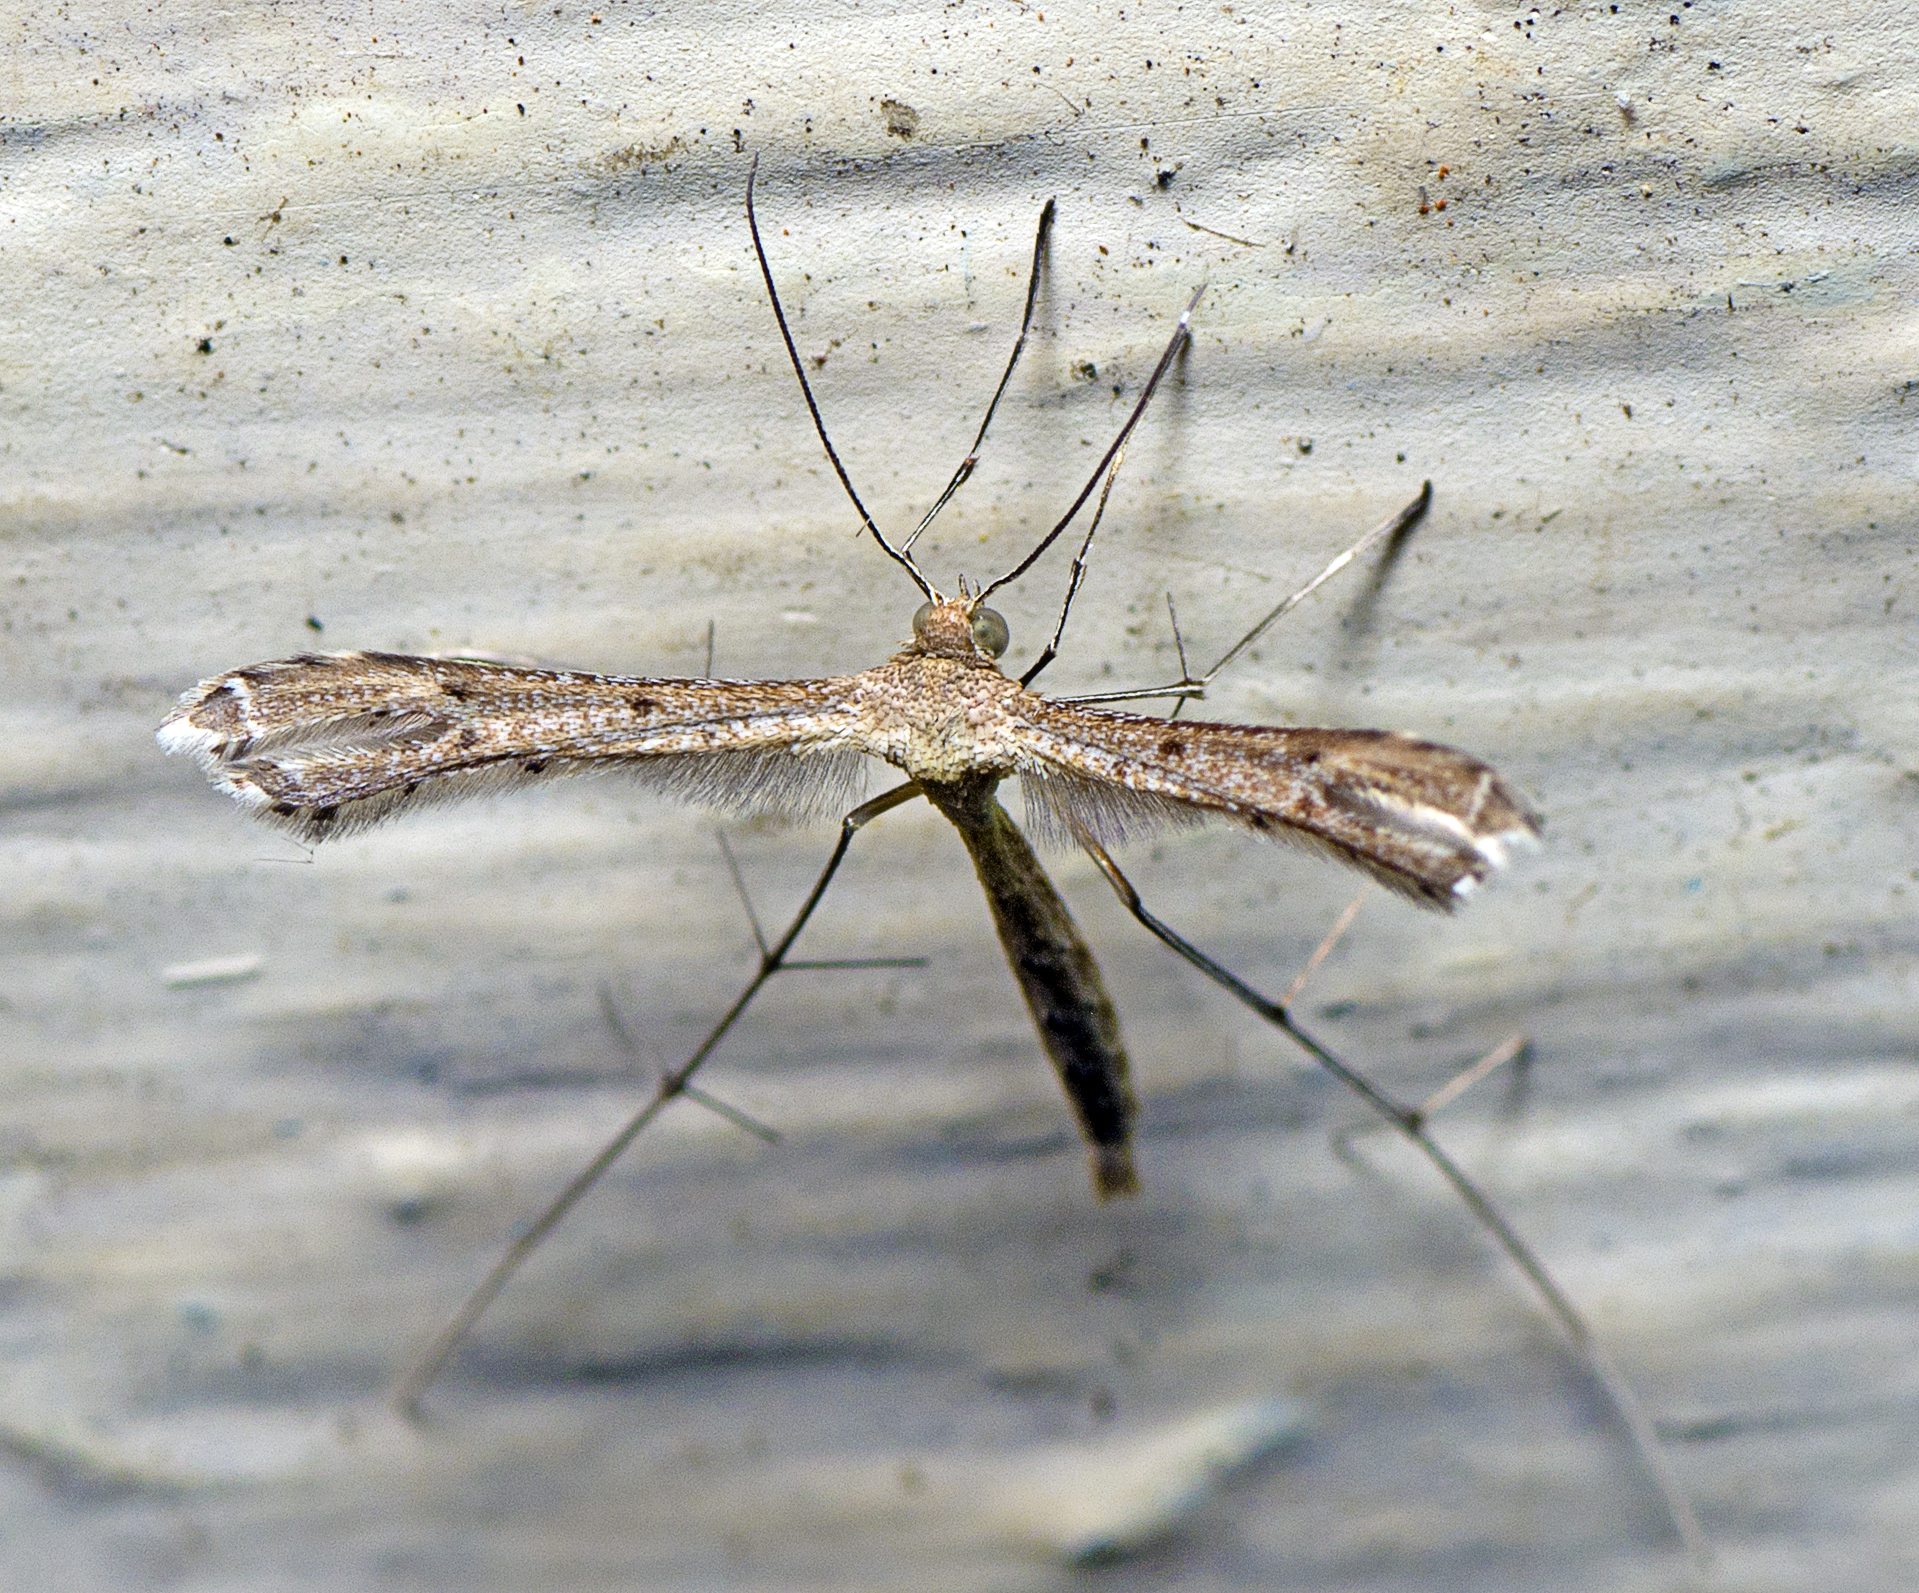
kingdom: Animalia
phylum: Arthropoda
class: Insecta
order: Lepidoptera
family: Pterophoridae
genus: Stenoptilodes
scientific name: Stenoptilodes taprobanes
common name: Moth
